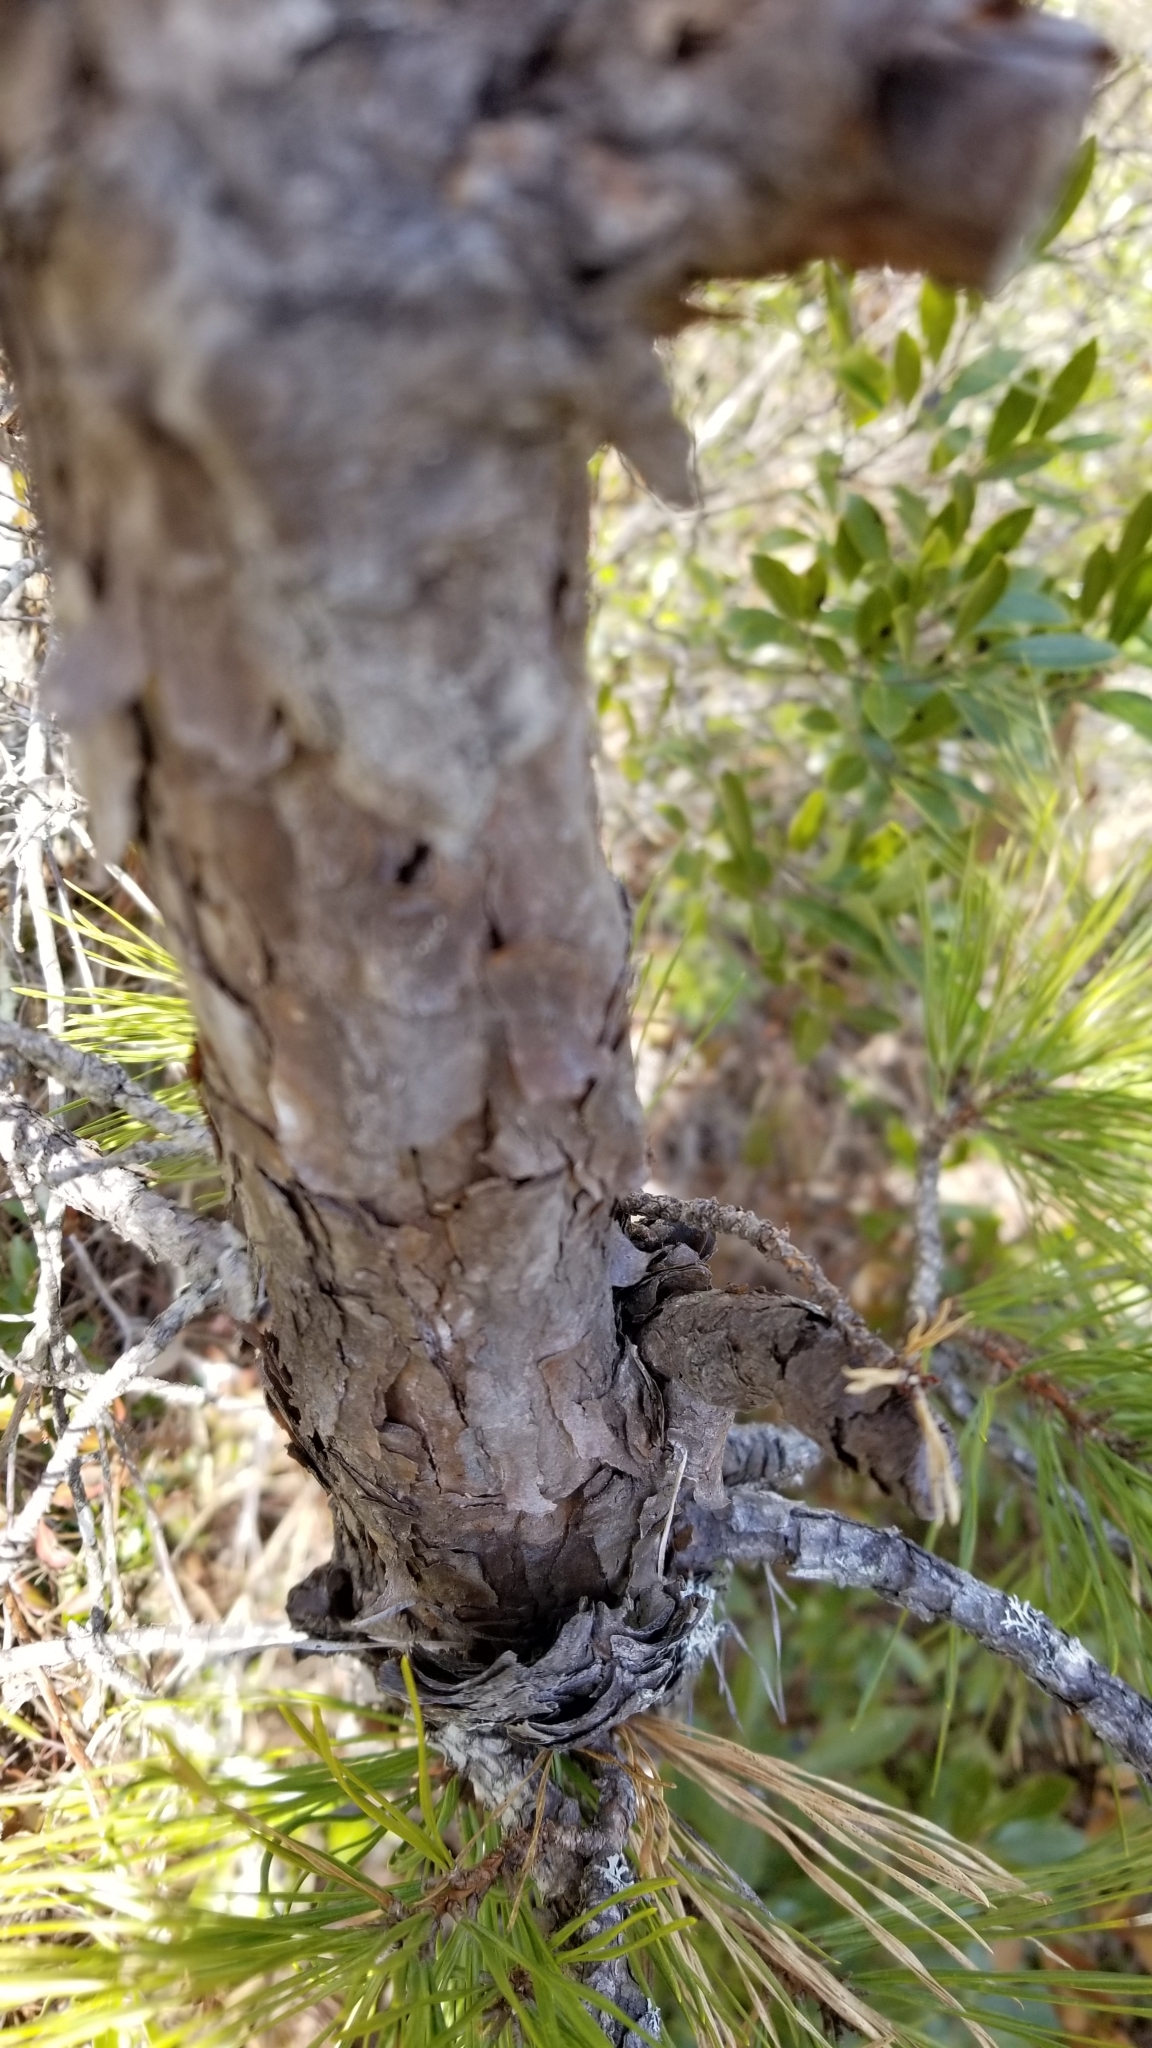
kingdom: Plantae
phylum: Tracheophyta
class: Pinopsida
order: Pinales
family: Pinaceae
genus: Pinus
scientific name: Pinus rigida
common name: Pitch pine
